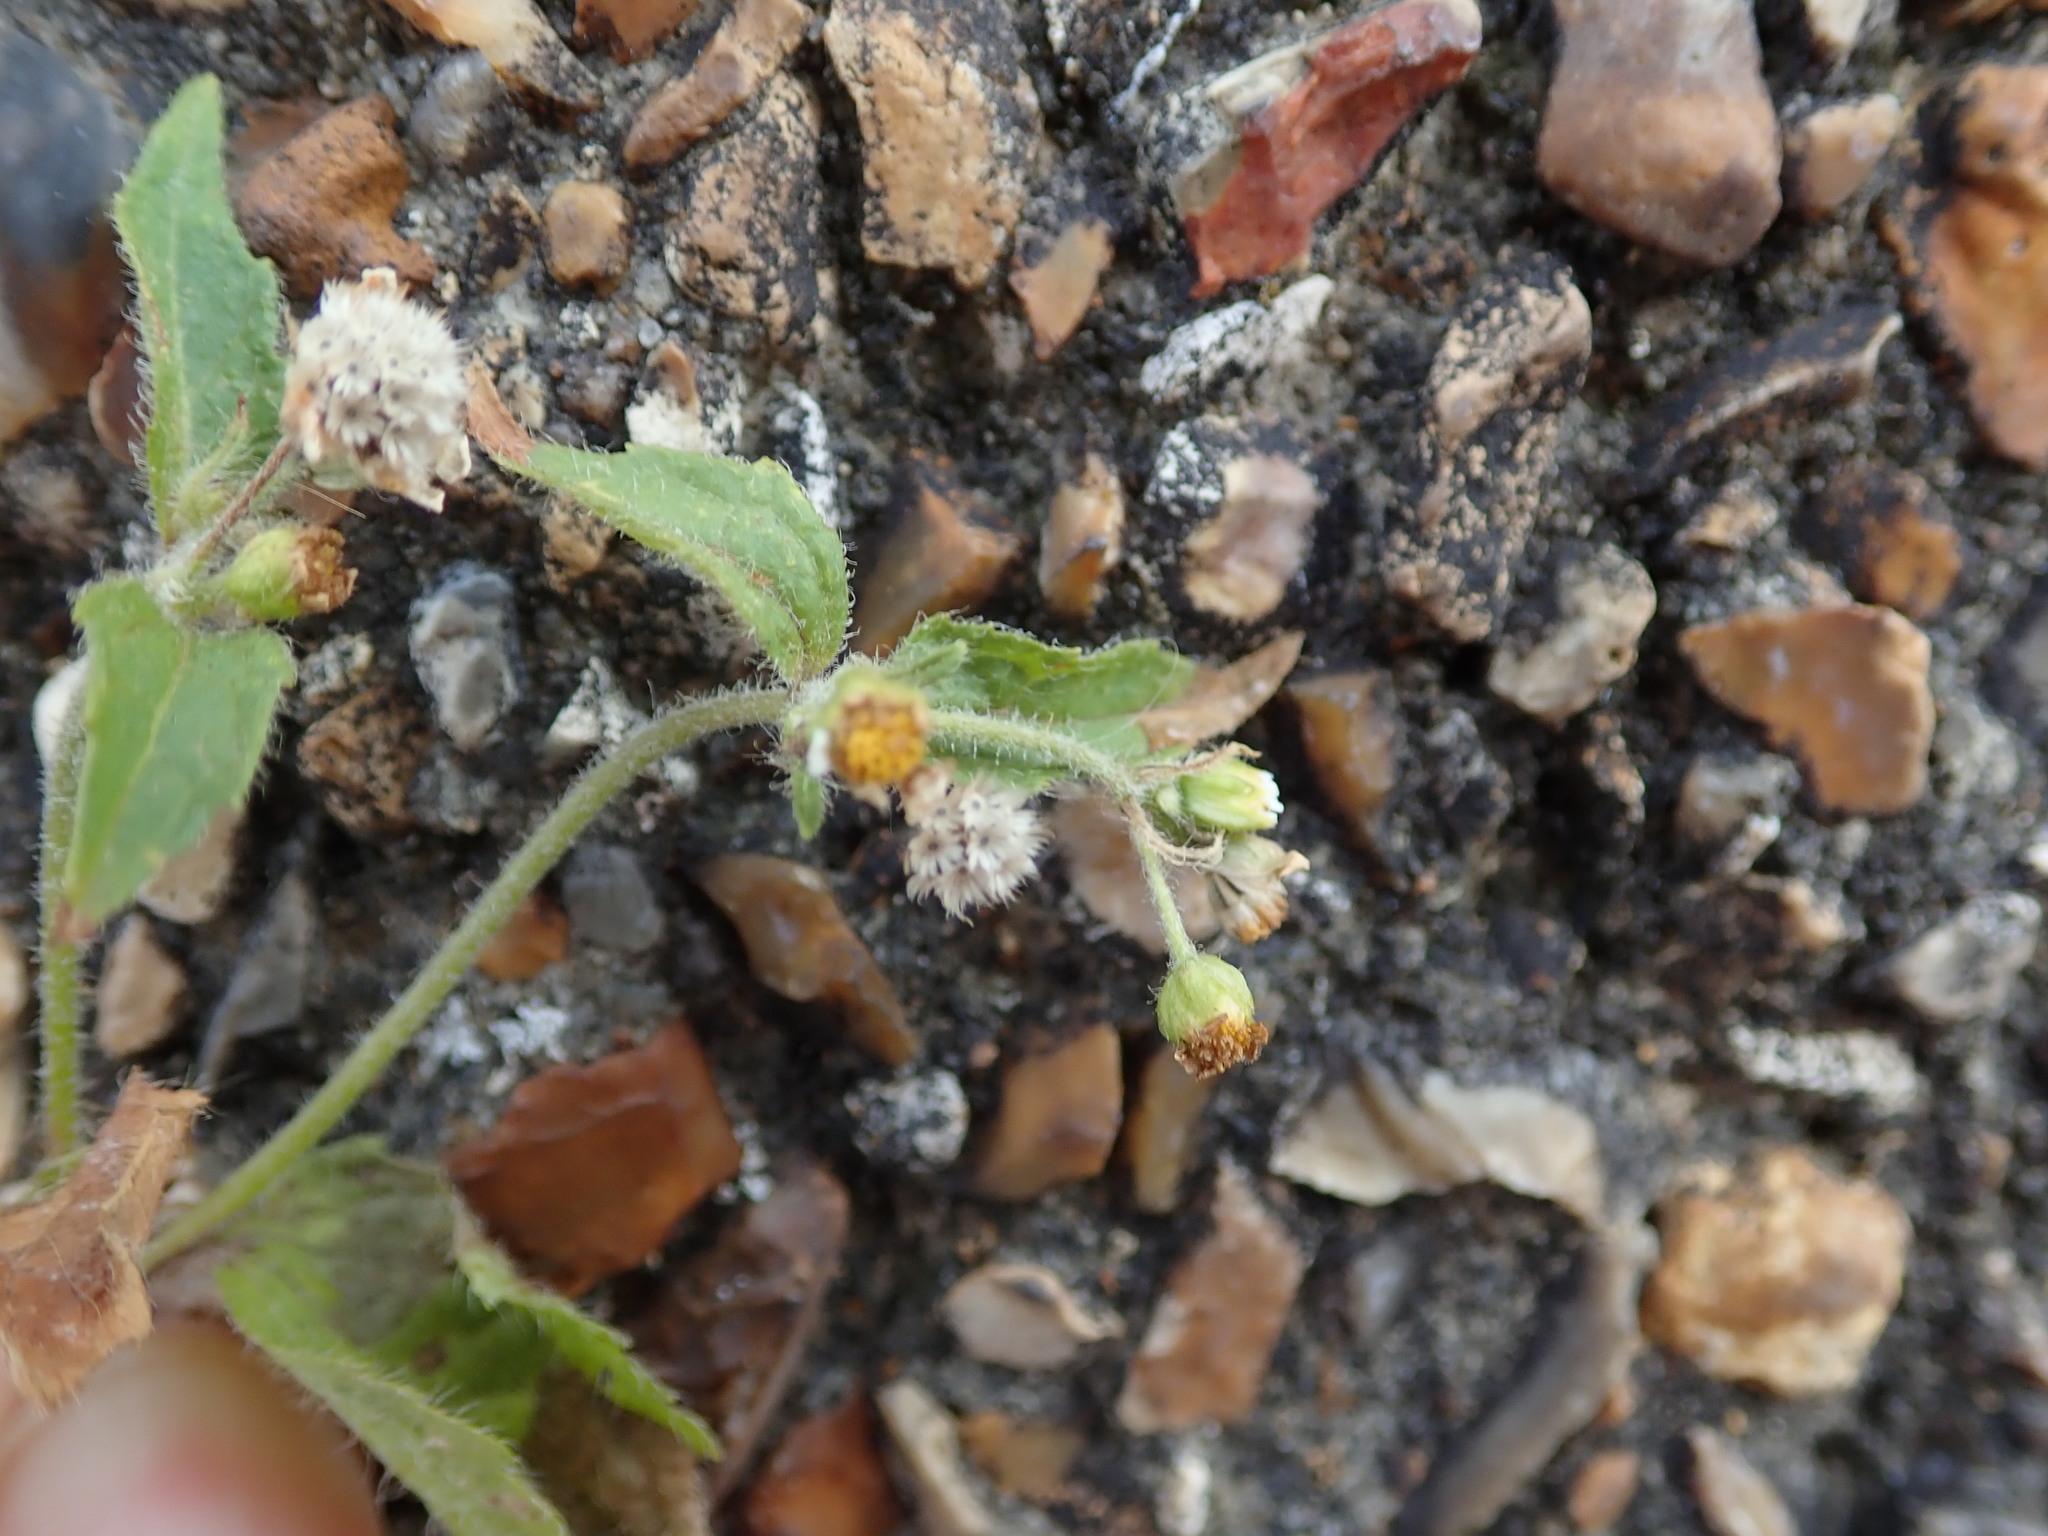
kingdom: Plantae
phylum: Tracheophyta
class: Magnoliopsida
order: Asterales
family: Asteraceae
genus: Galinsoga
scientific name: Galinsoga quadriradiata
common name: Shaggy soldier
